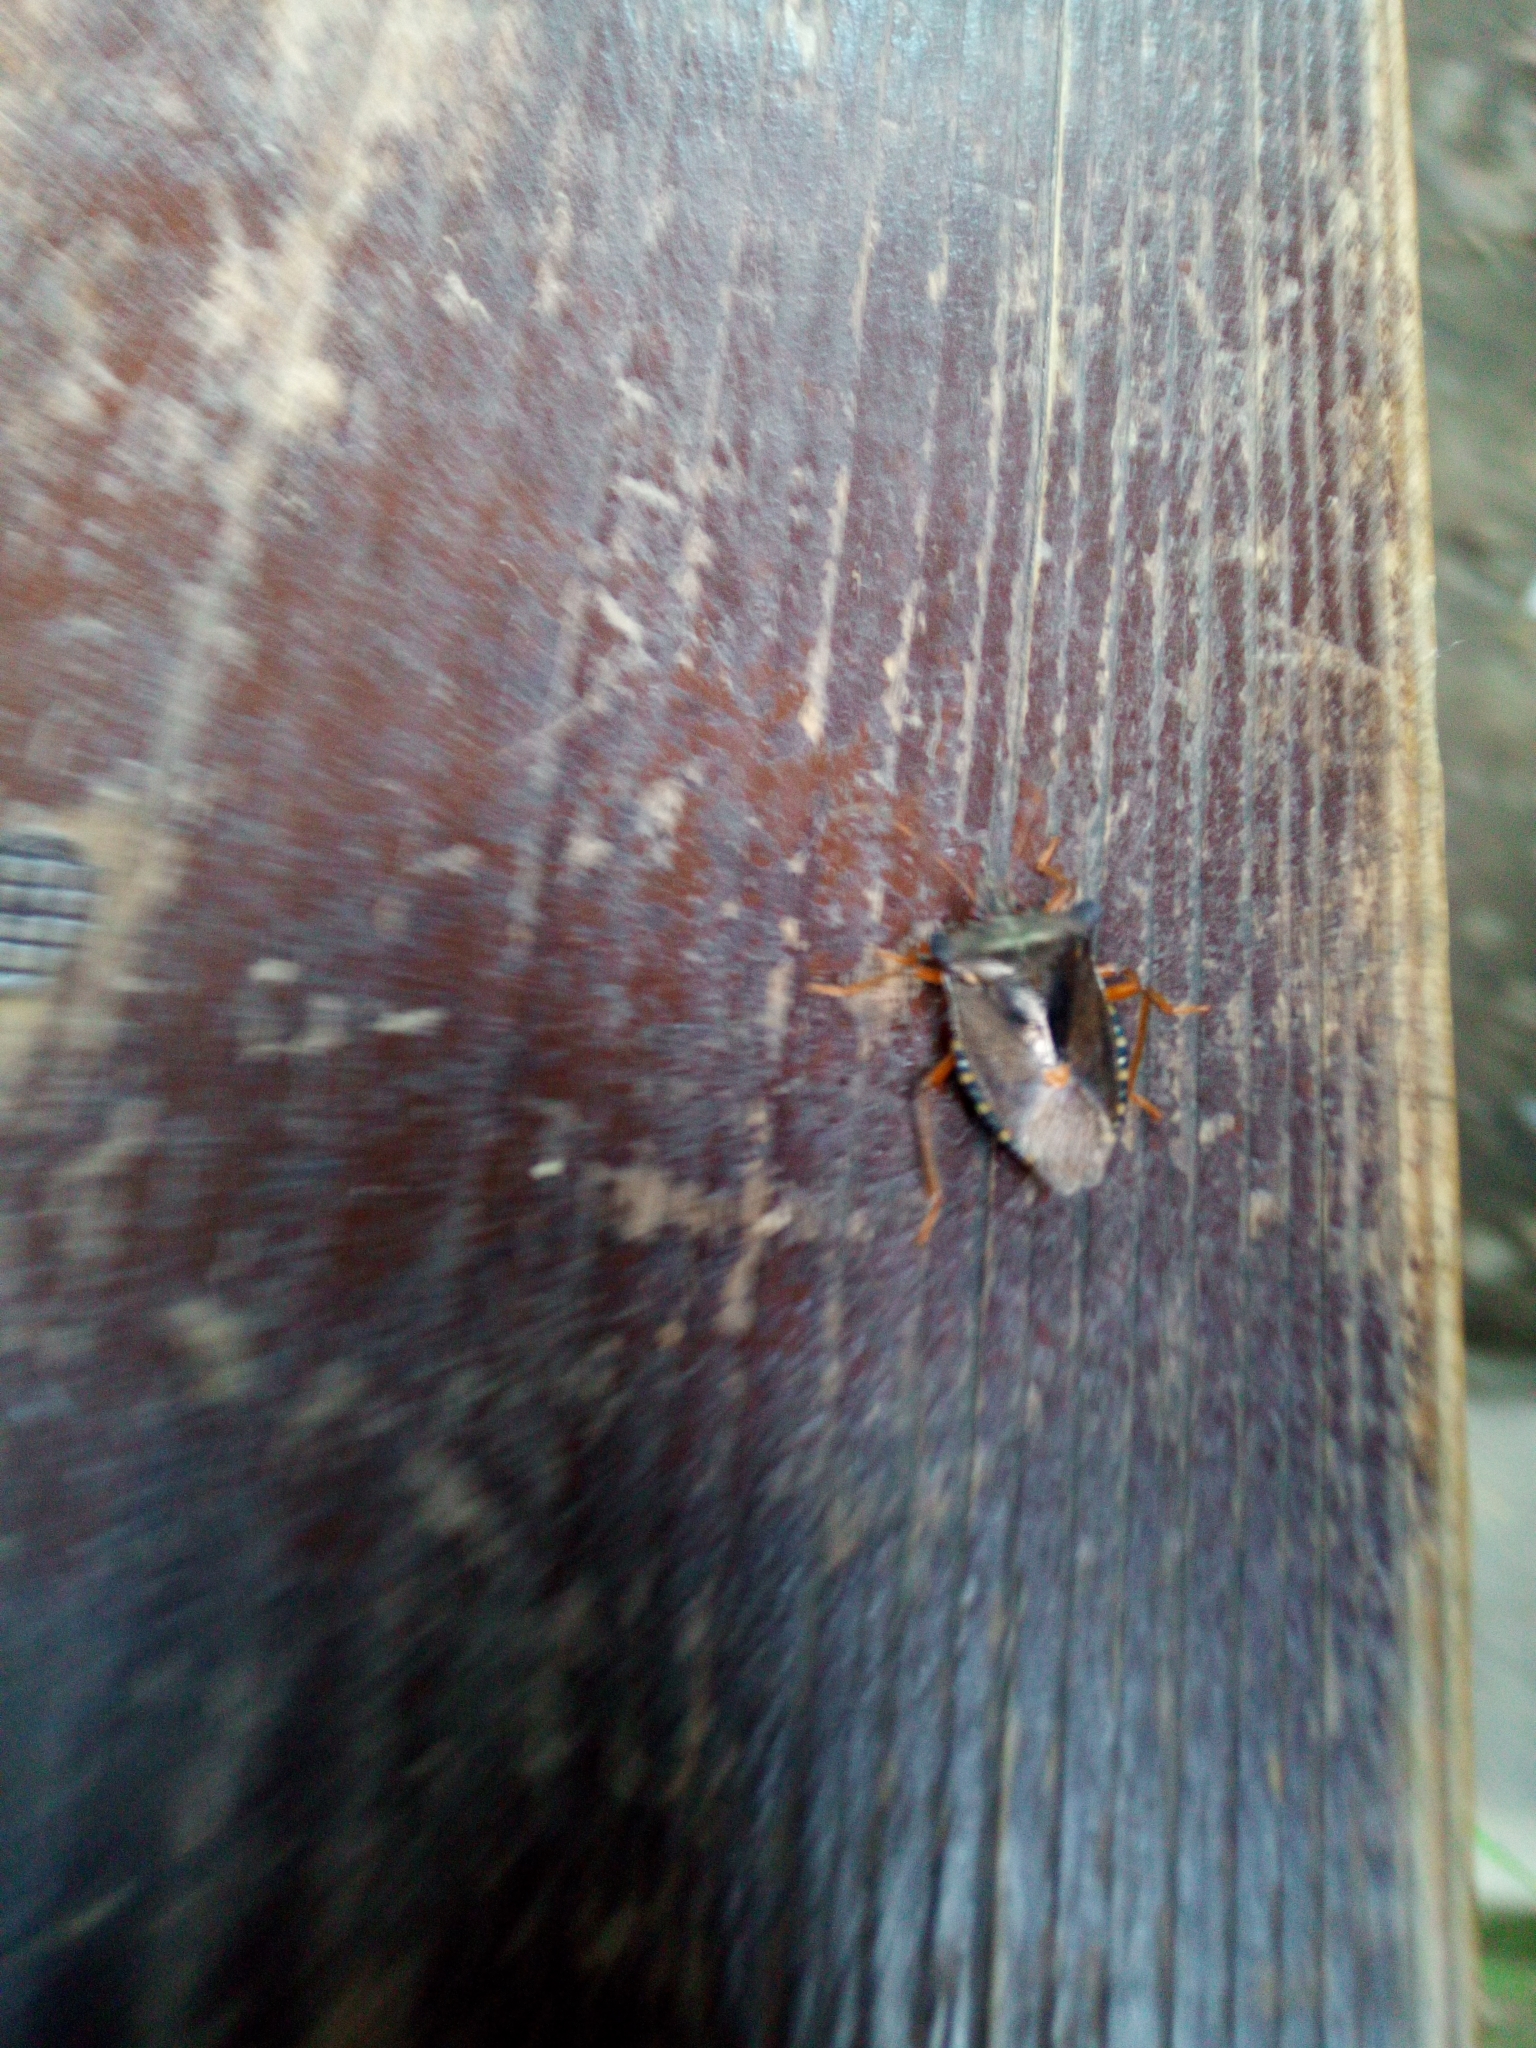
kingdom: Animalia
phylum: Arthropoda
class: Insecta
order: Hemiptera
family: Pentatomidae
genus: Pentatoma
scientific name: Pentatoma rufipes
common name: Forest bug
